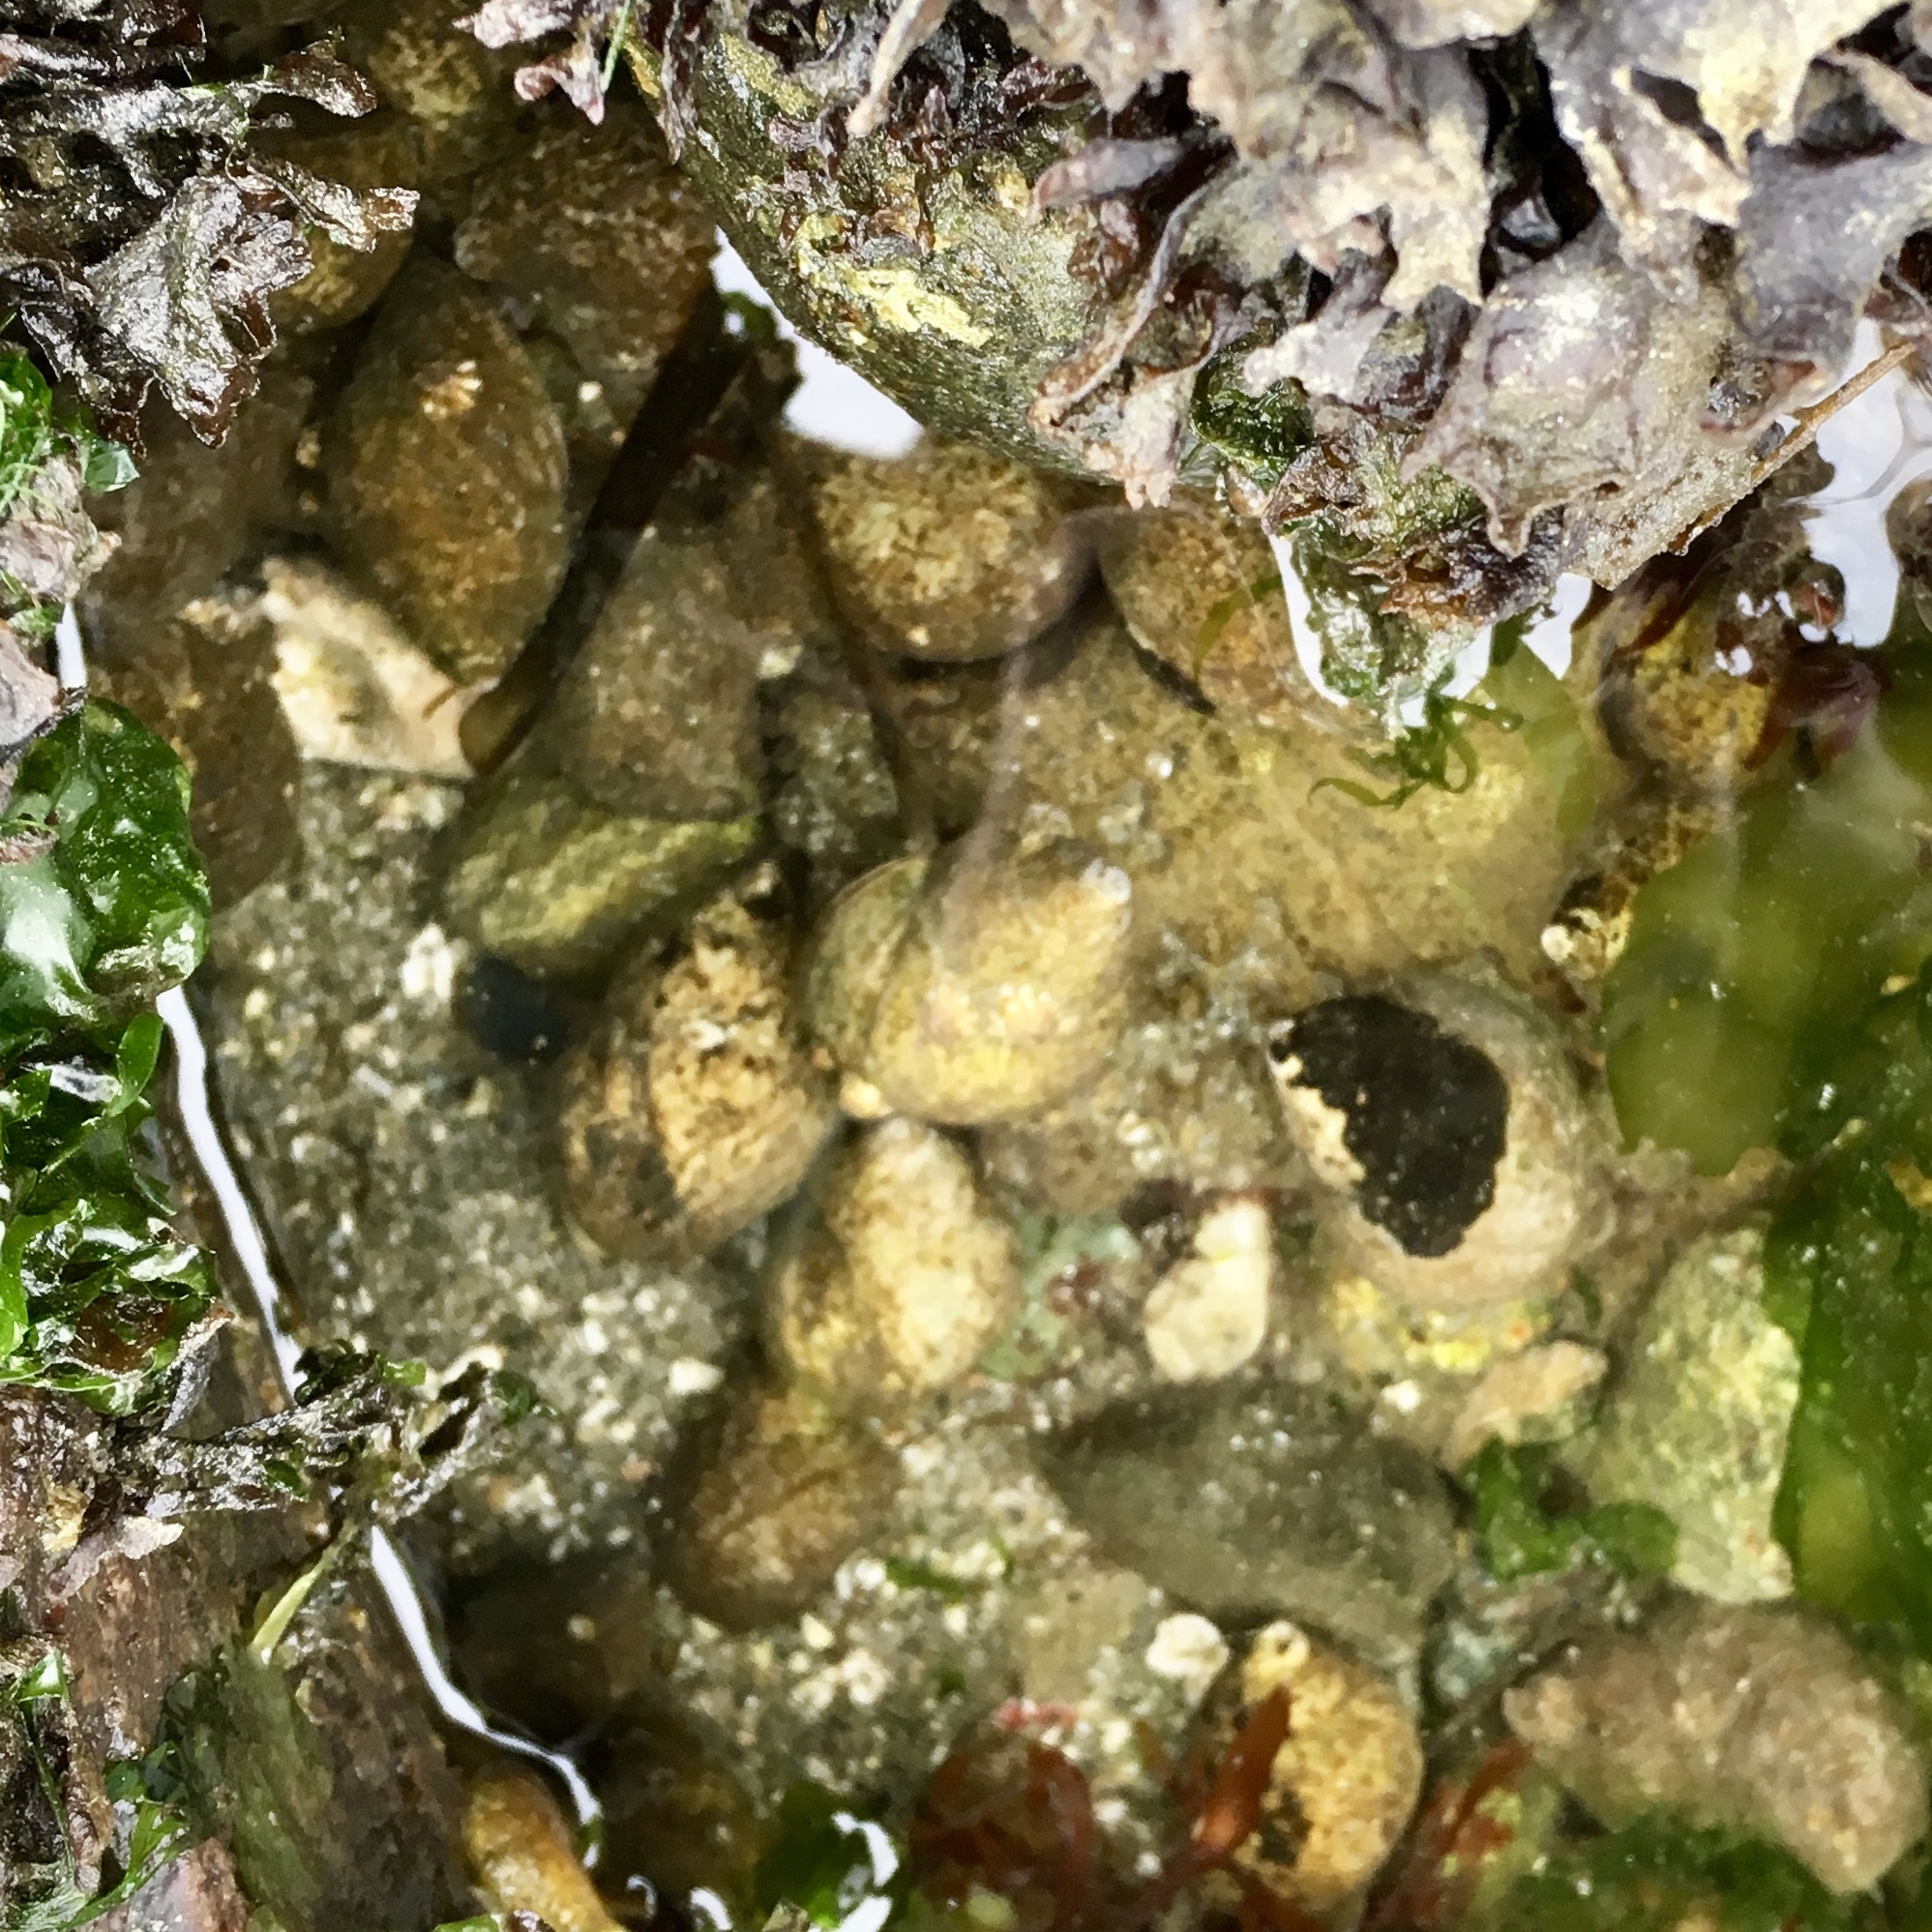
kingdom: Animalia
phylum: Mollusca
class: Gastropoda
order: Neogastropoda
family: Muricidae
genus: Nucella
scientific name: Nucella lamellosa
